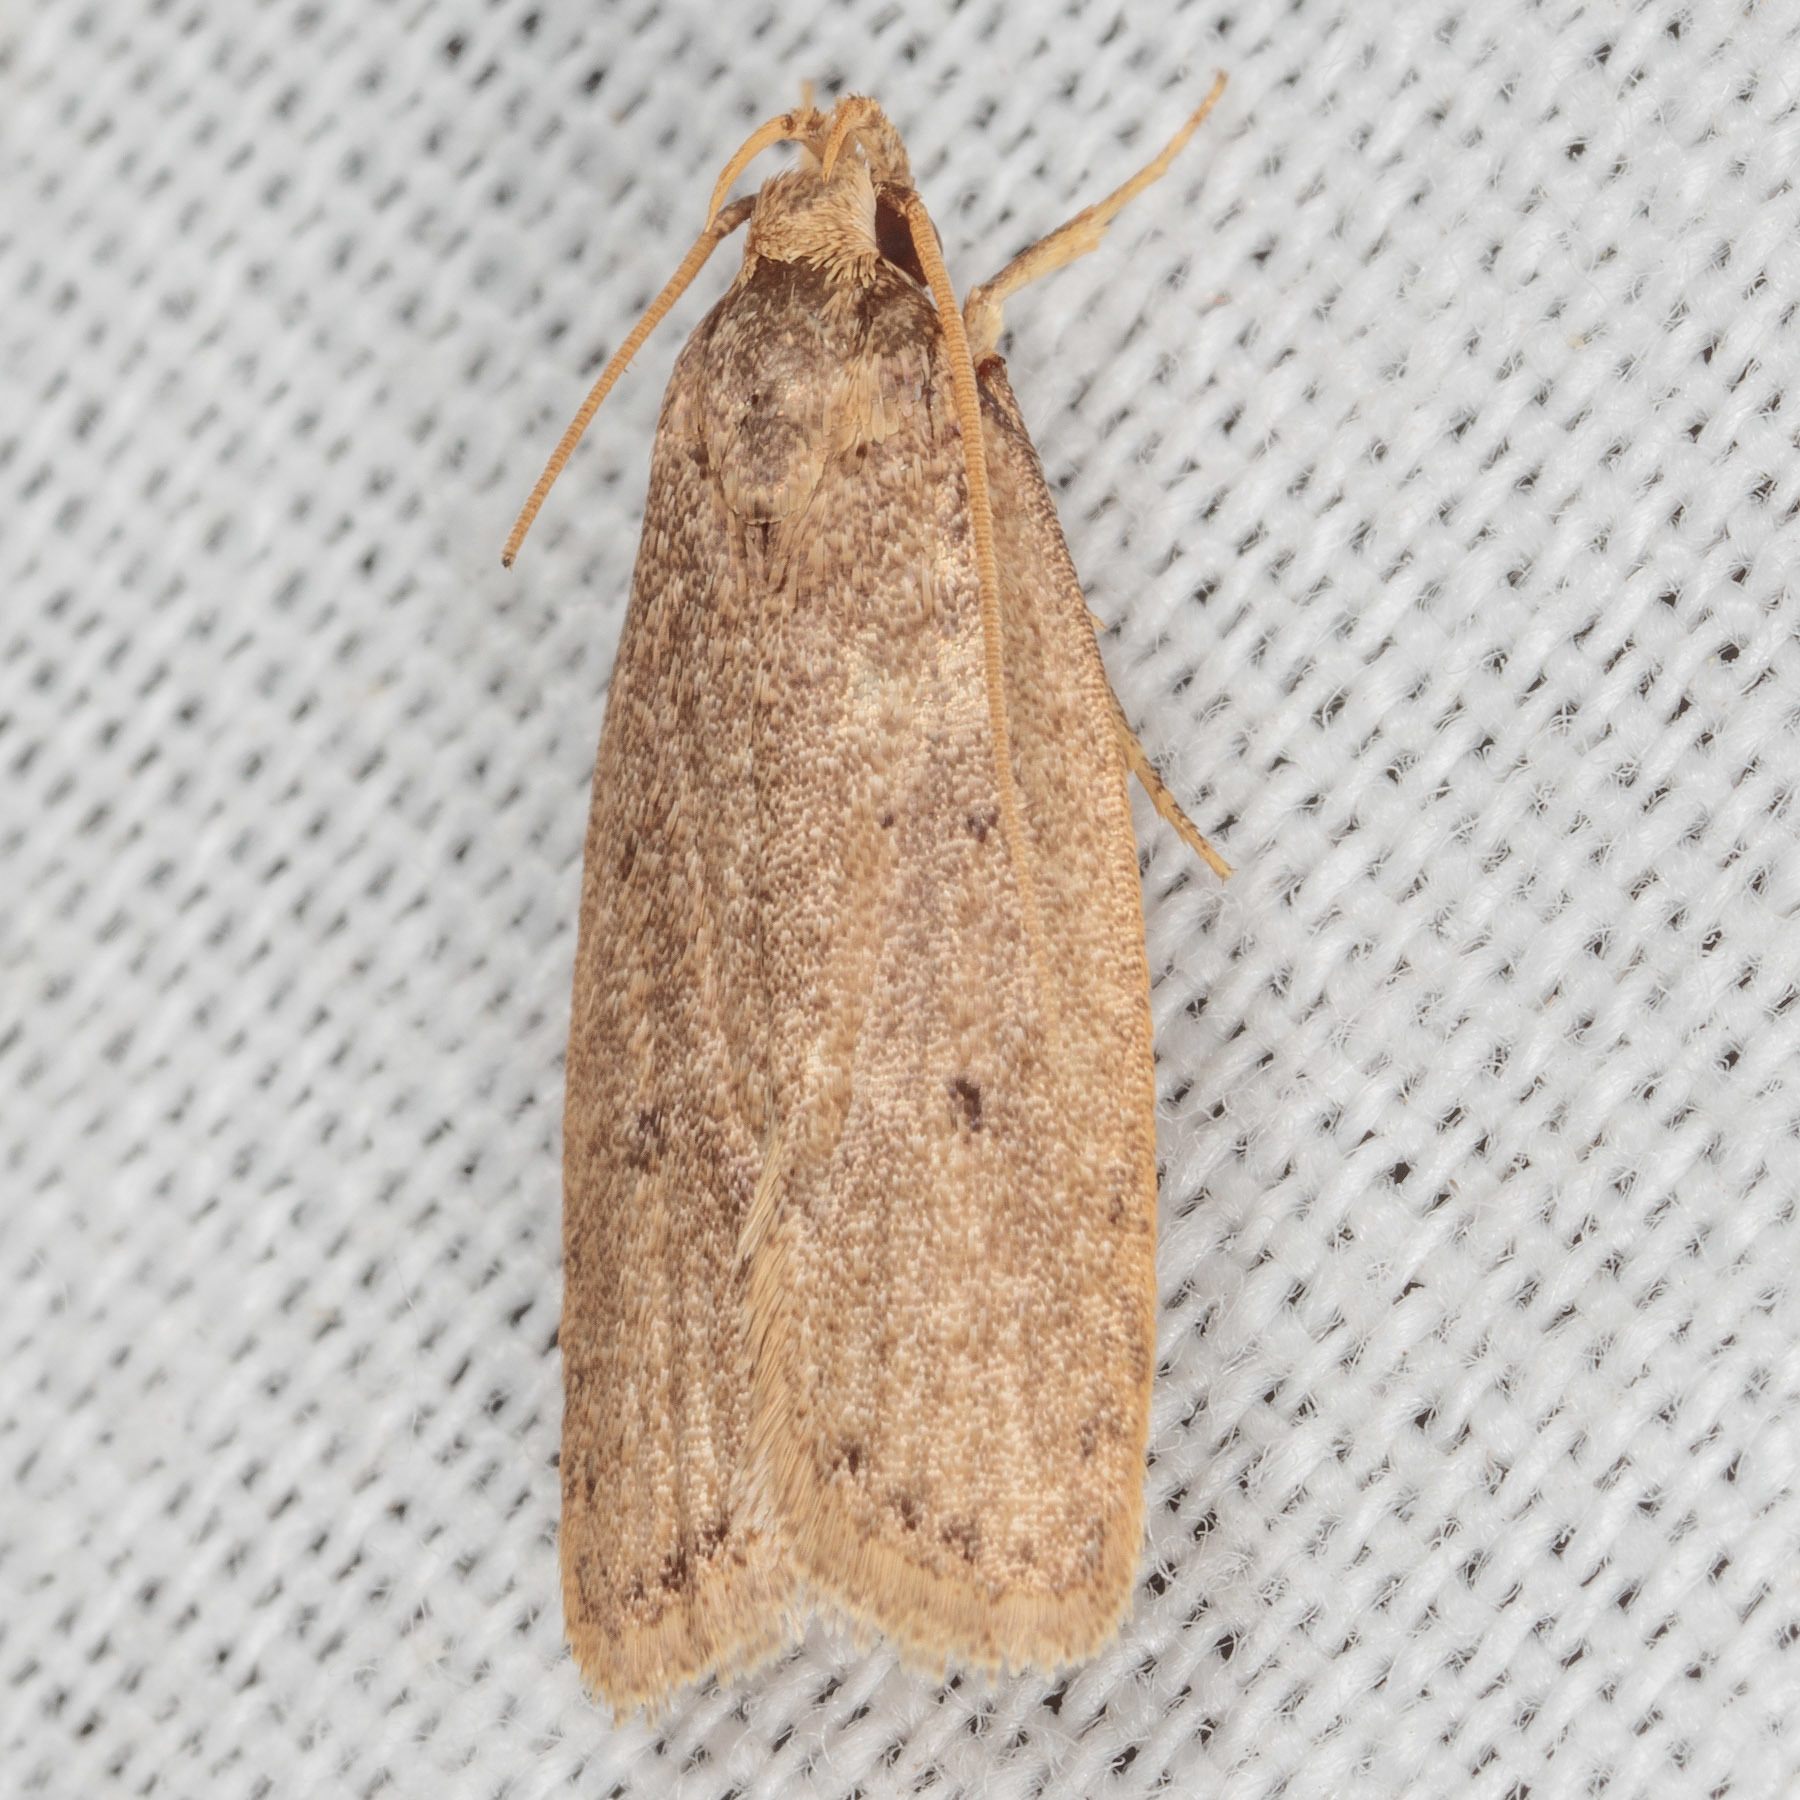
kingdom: Animalia
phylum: Arthropoda
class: Insecta
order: Lepidoptera
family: Autostichidae
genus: Autosticha
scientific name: Autosticha kyotensis
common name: Kyoto moth
